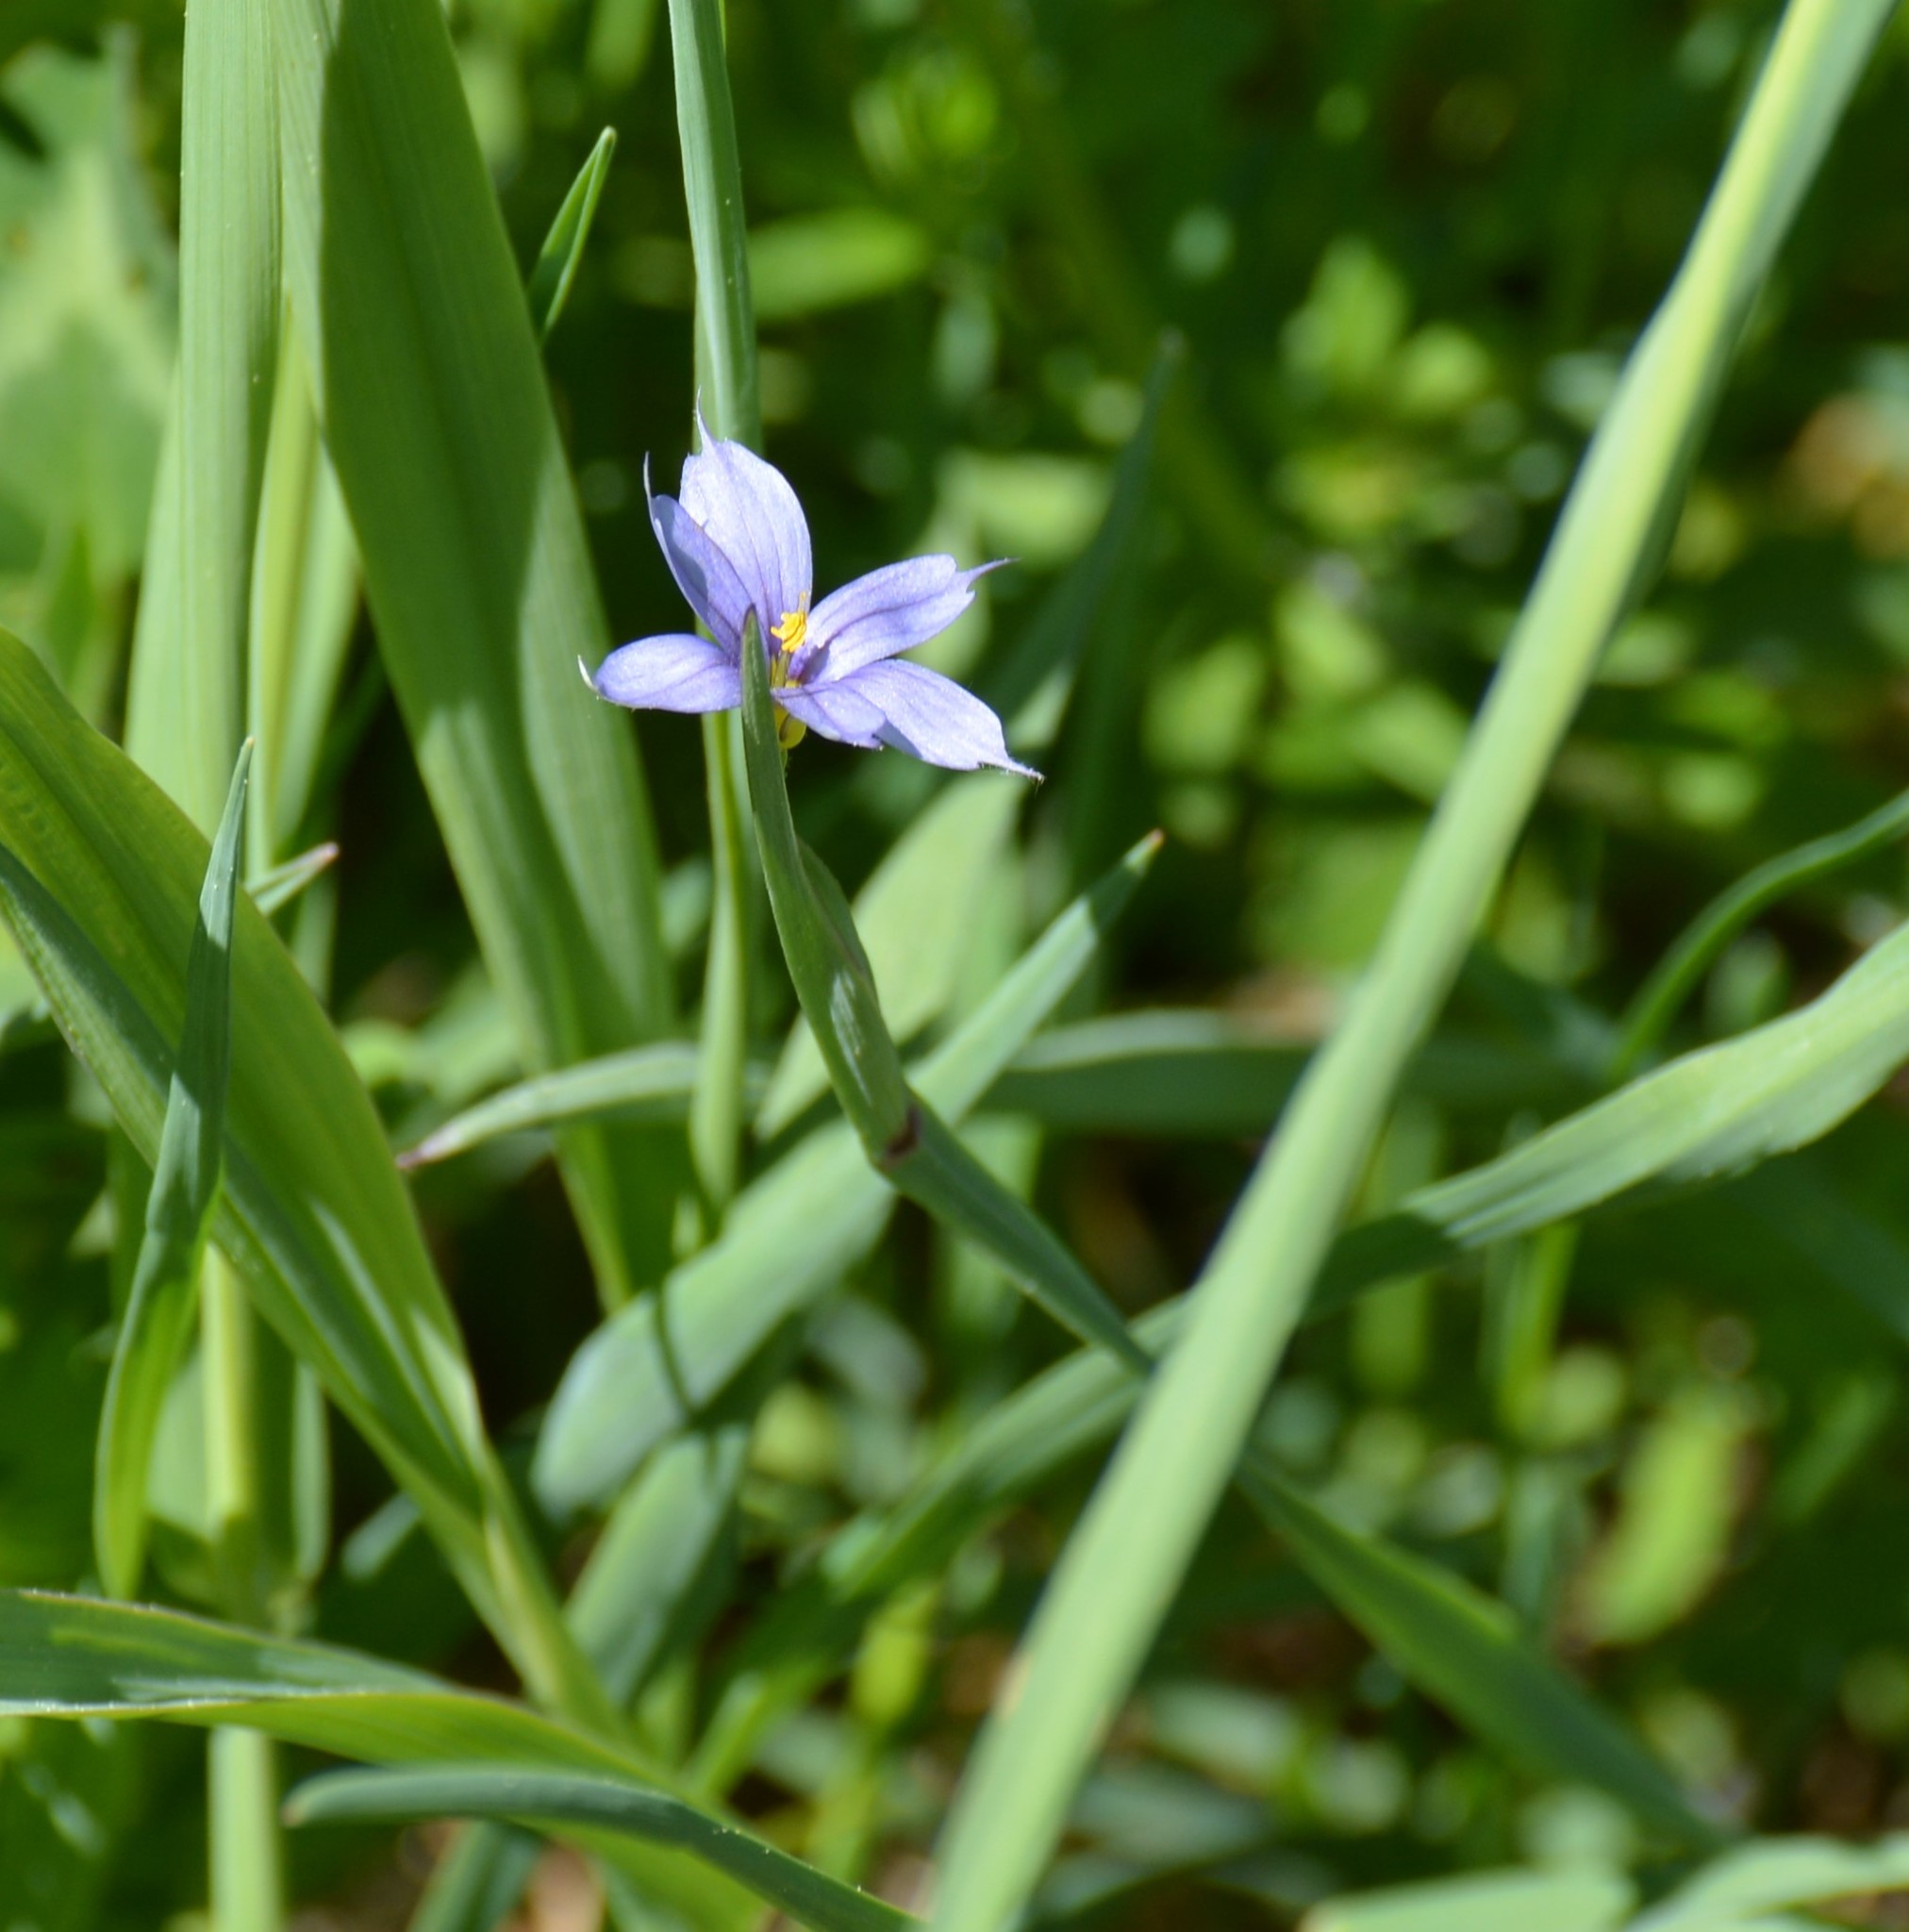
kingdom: Plantae
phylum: Tracheophyta
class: Liliopsida
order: Asparagales
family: Iridaceae
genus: Sisyrinchium
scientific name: Sisyrinchium montanum
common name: American blue-eyed-grass
